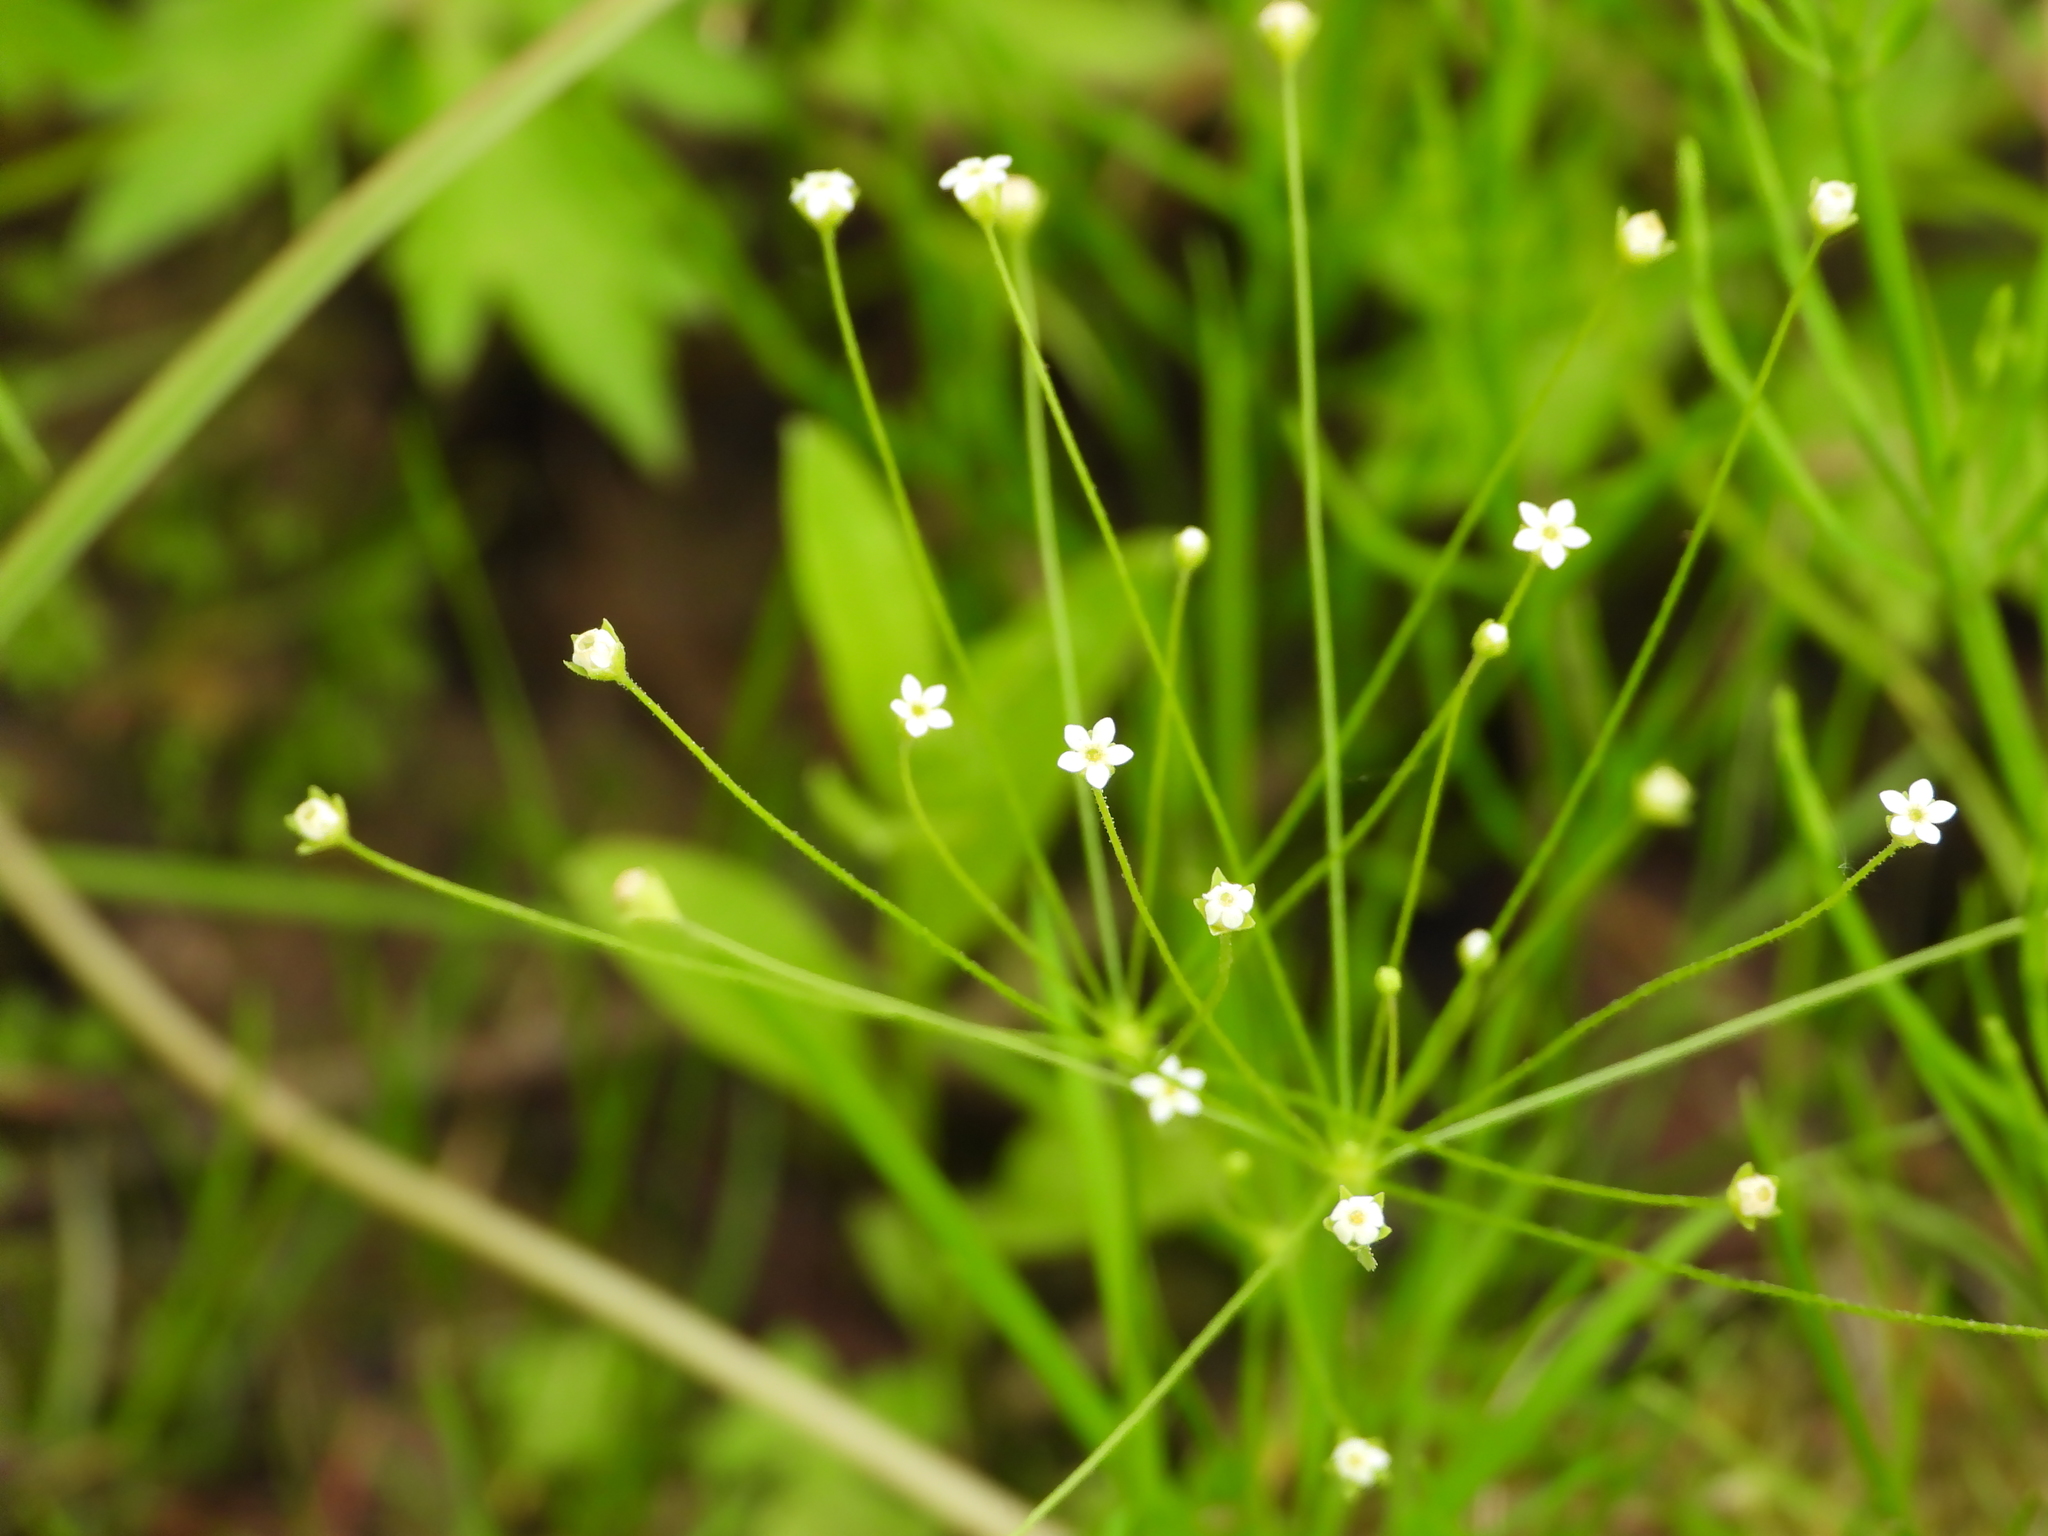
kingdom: Plantae
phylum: Tracheophyta
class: Magnoliopsida
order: Ericales
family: Primulaceae
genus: Androsace
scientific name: Androsace filiformis
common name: Filiform rock jasmine
